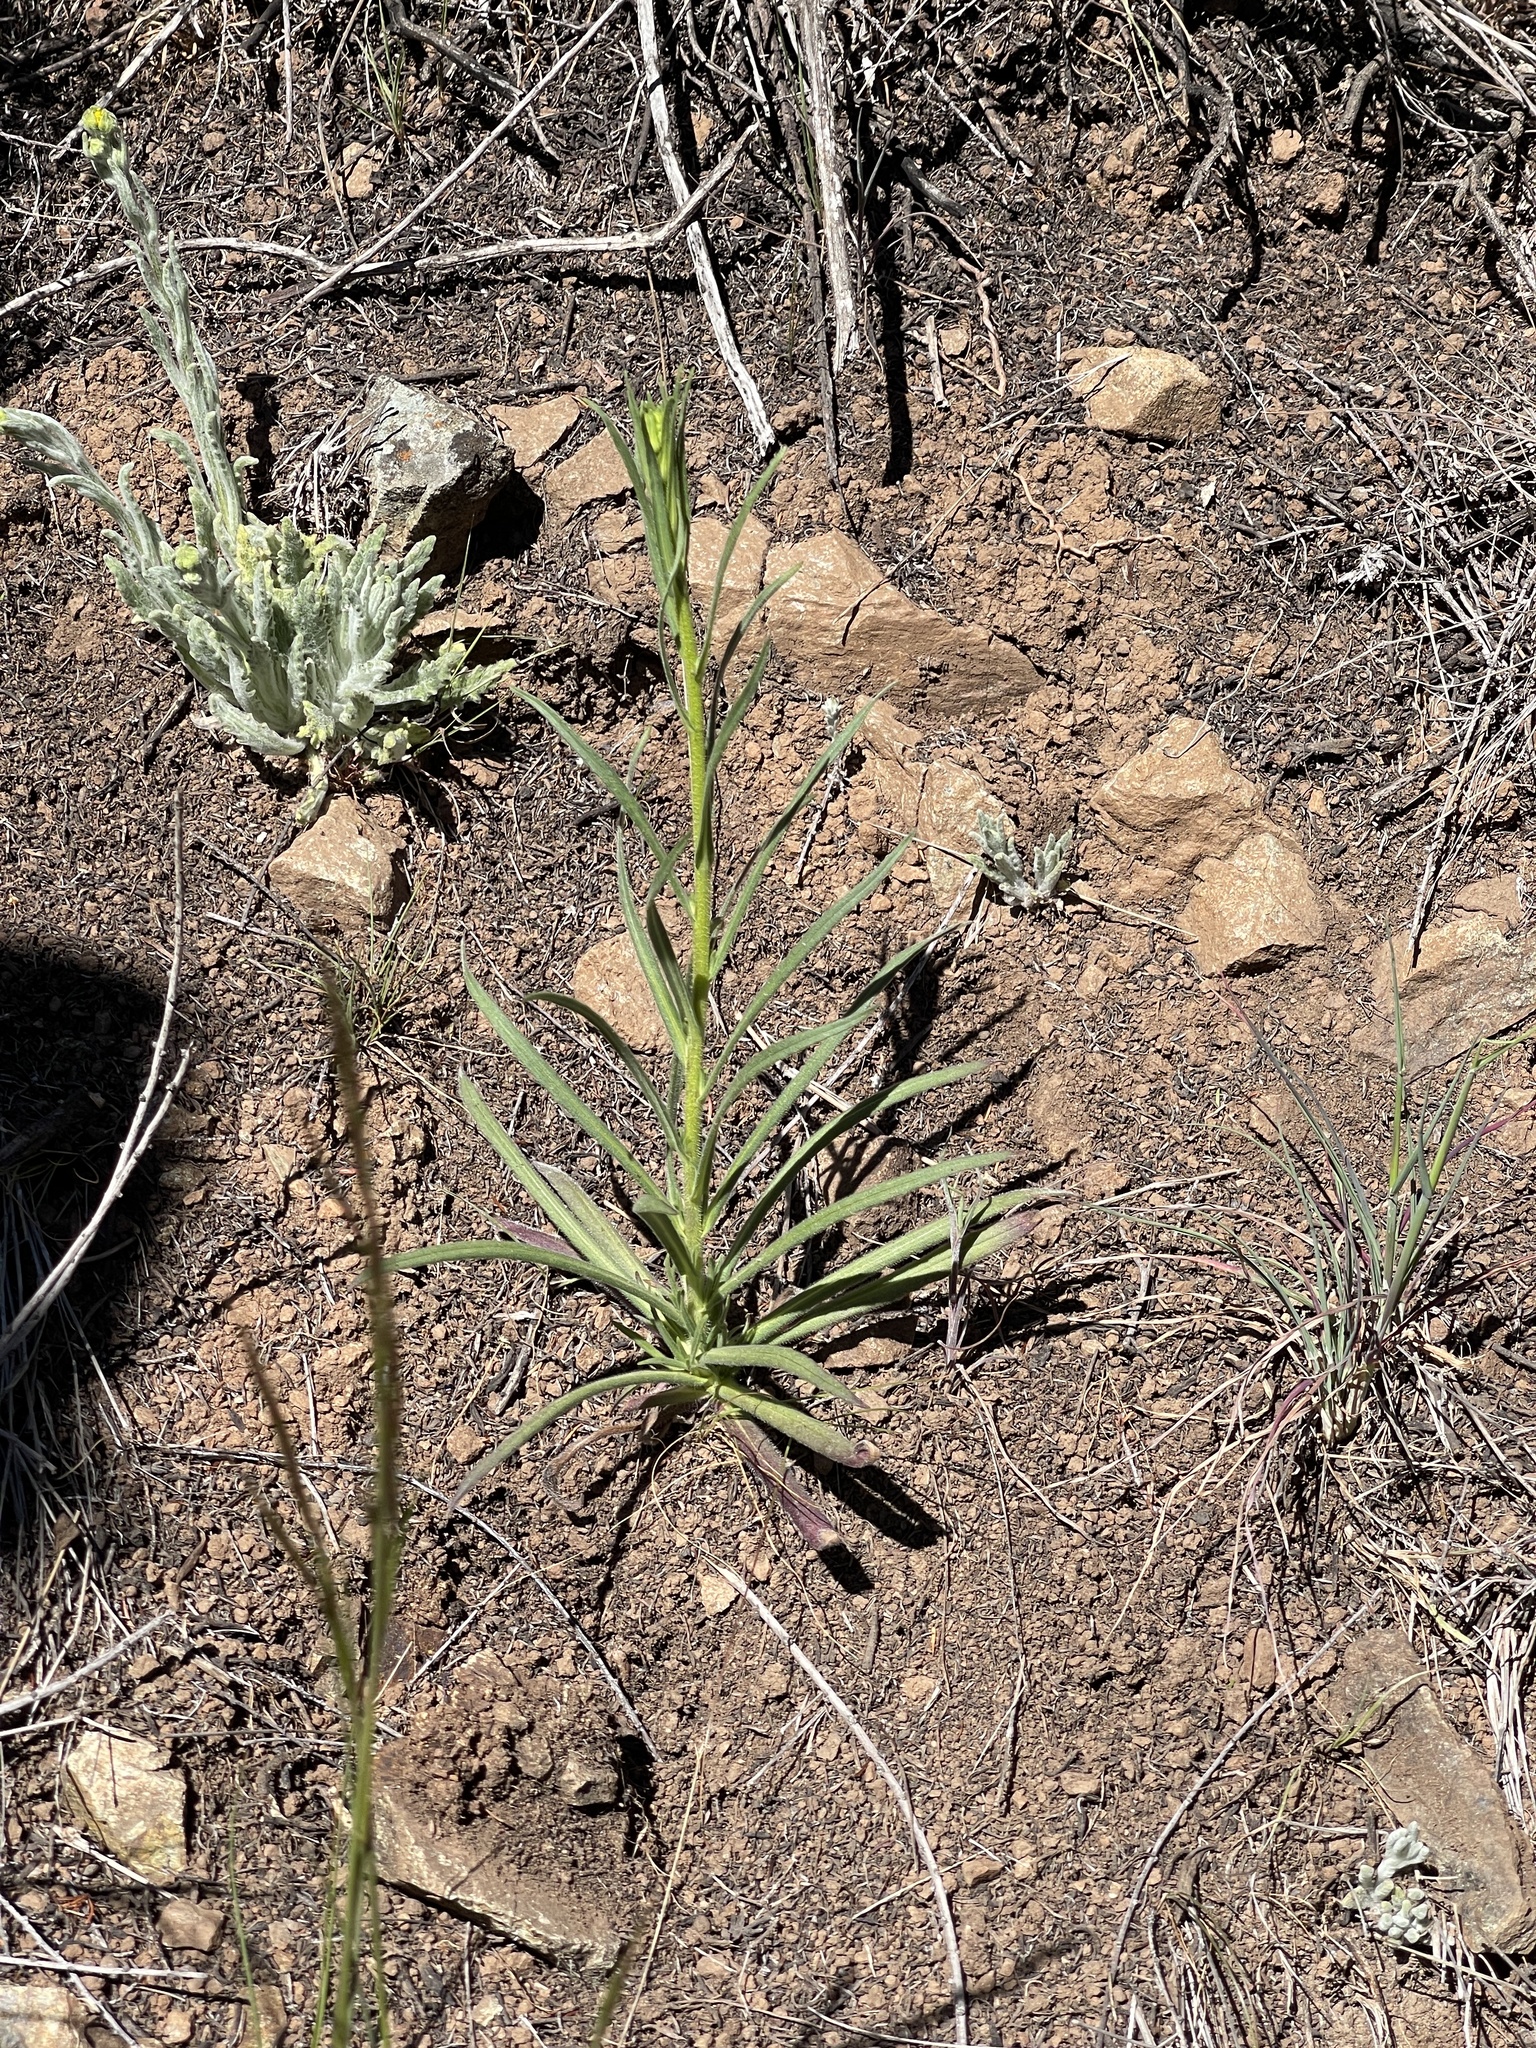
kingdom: Plantae
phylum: Tracheophyta
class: Magnoliopsida
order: Asterales
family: Asteraceae
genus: Madia
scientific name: Madia elegans
